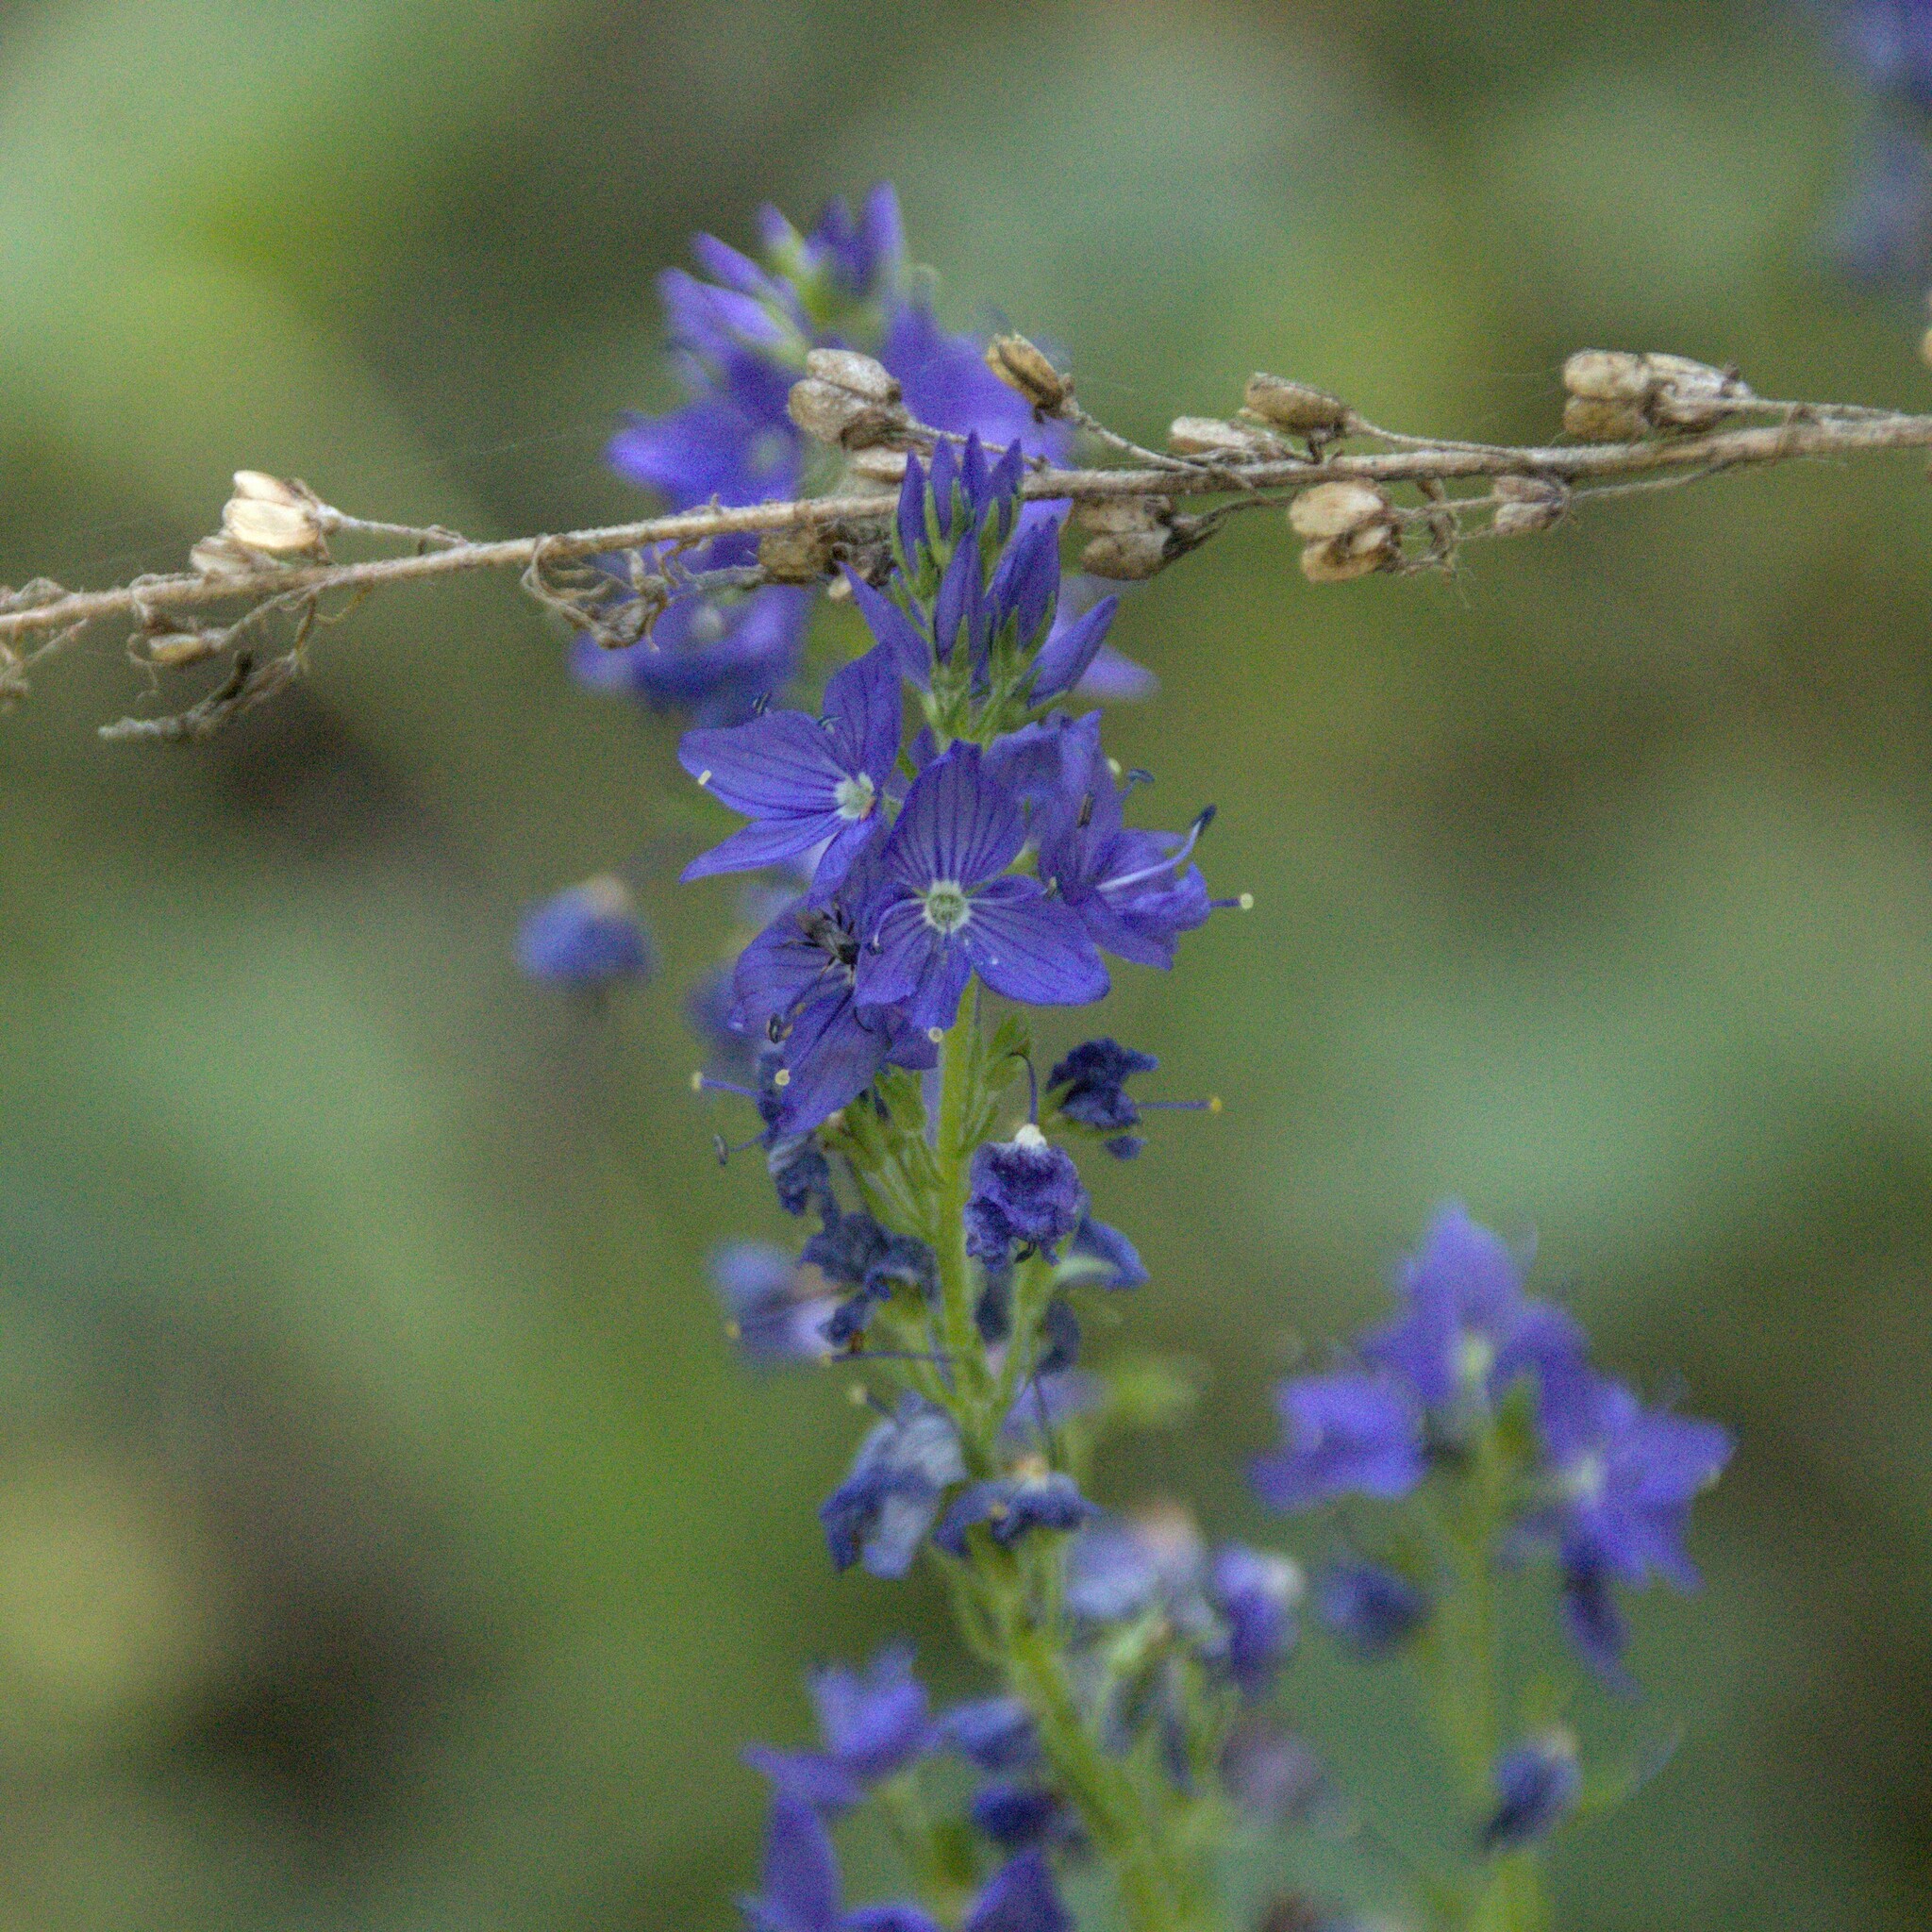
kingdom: Plantae
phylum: Tracheophyta
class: Magnoliopsida
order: Lamiales
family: Plantaginaceae
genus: Veronica
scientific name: Veronica teucrium
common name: Large speedwell
